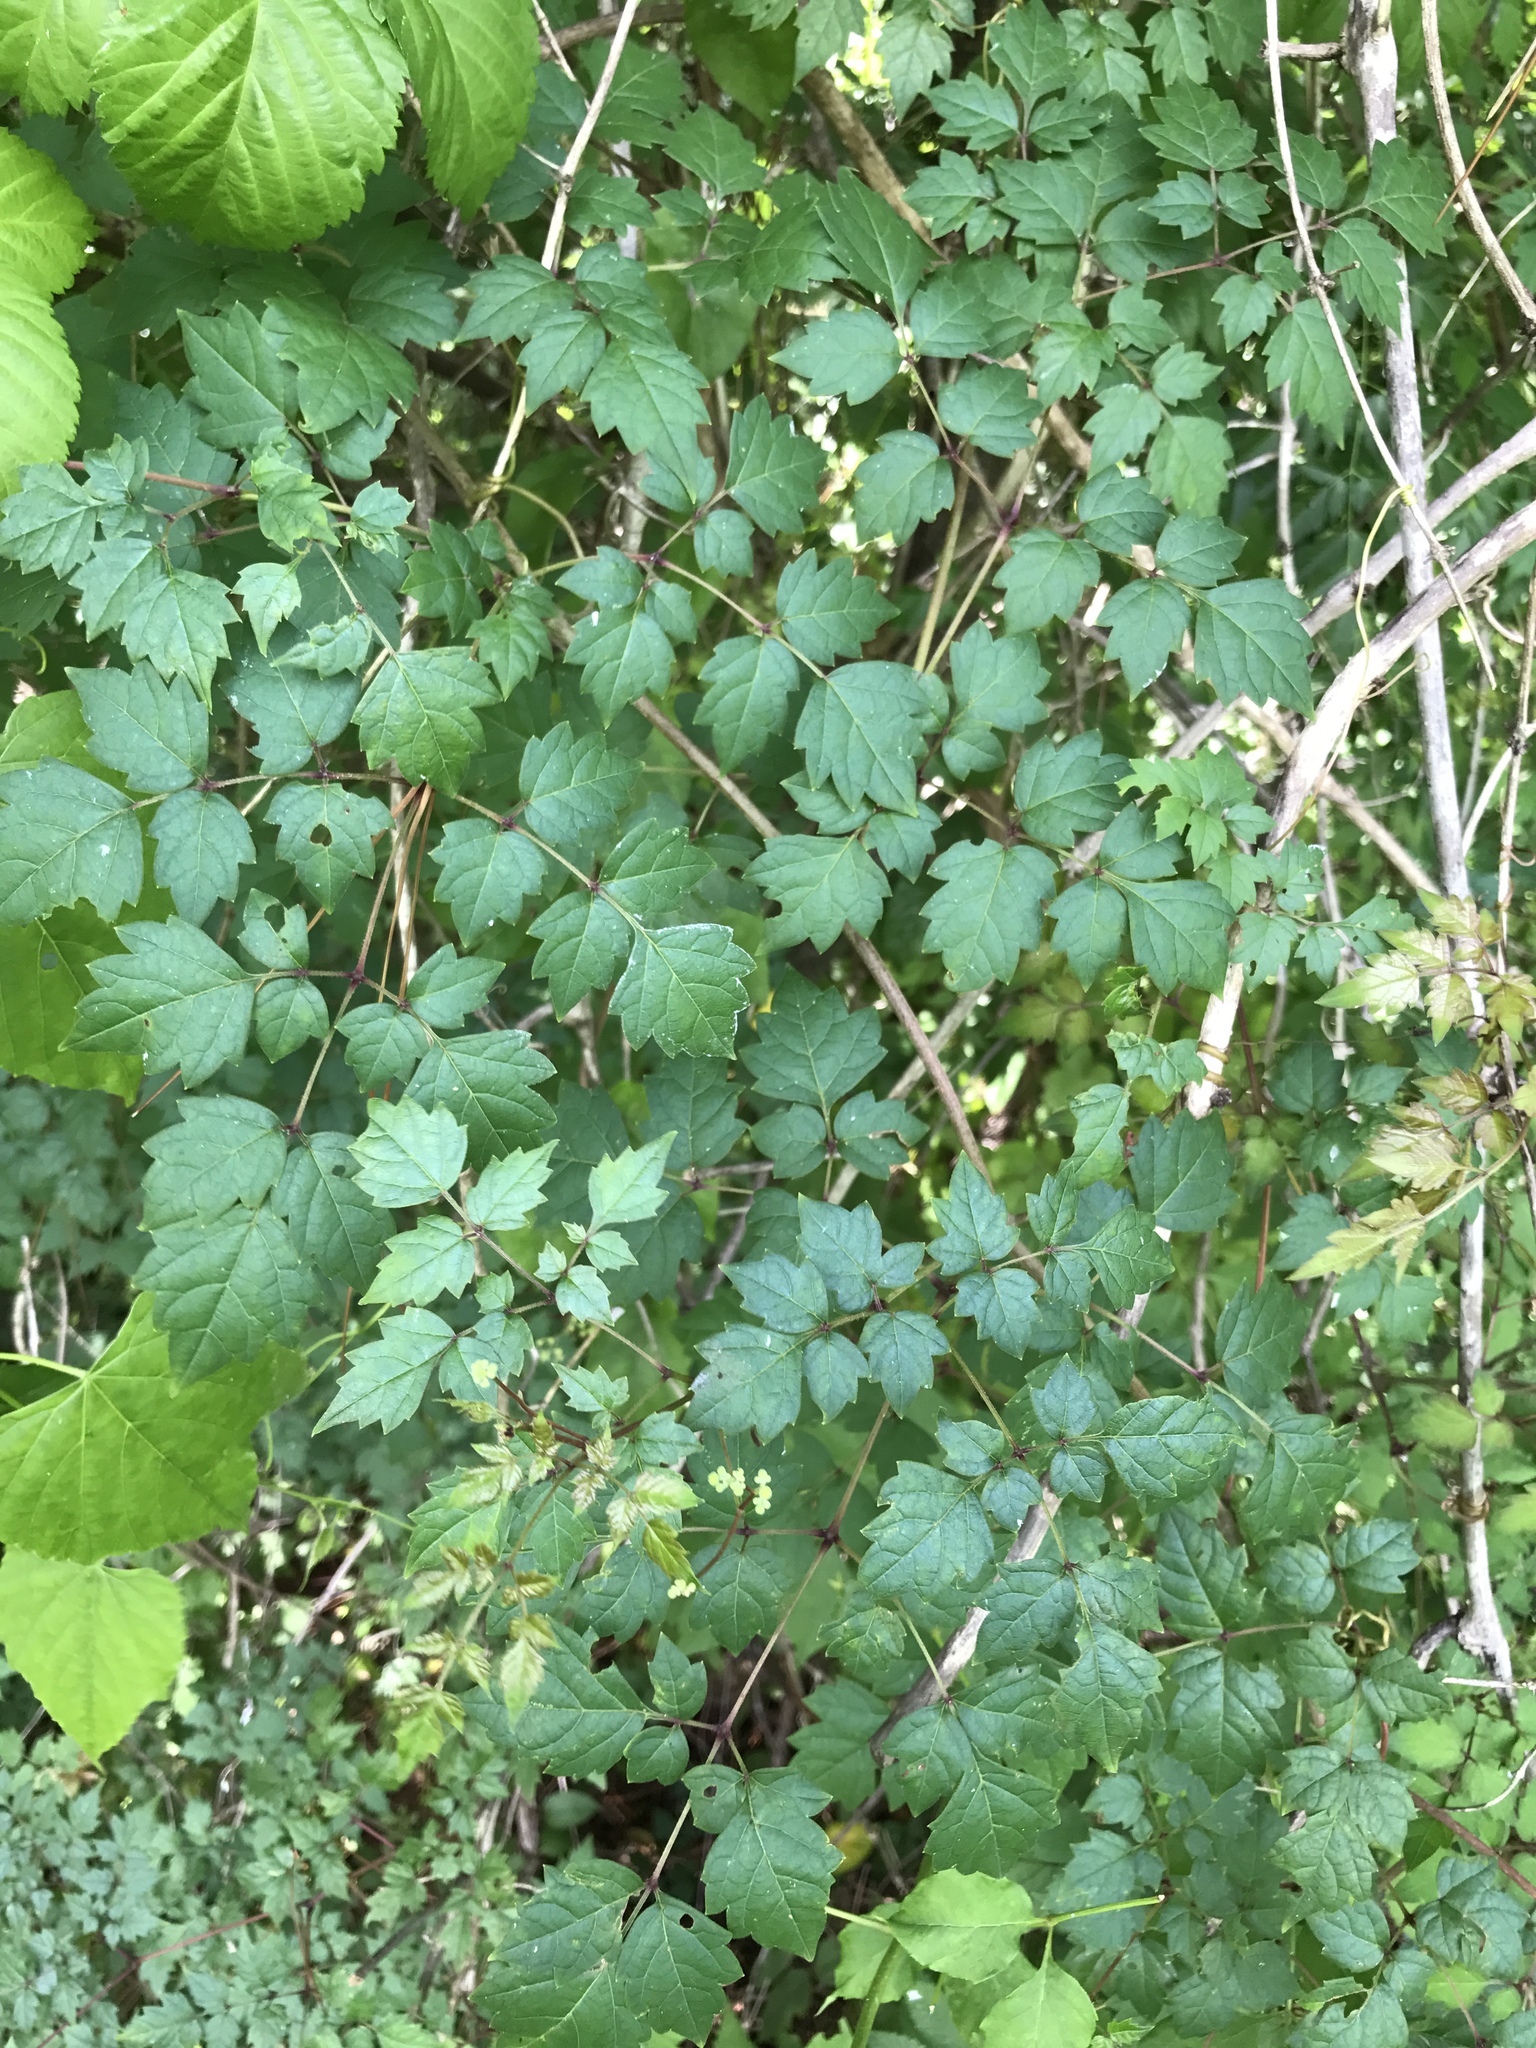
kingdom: Plantae
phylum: Tracheophyta
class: Magnoliopsida
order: Vitales
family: Vitaceae
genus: Nekemias
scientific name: Nekemias arborea
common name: Peppervine
